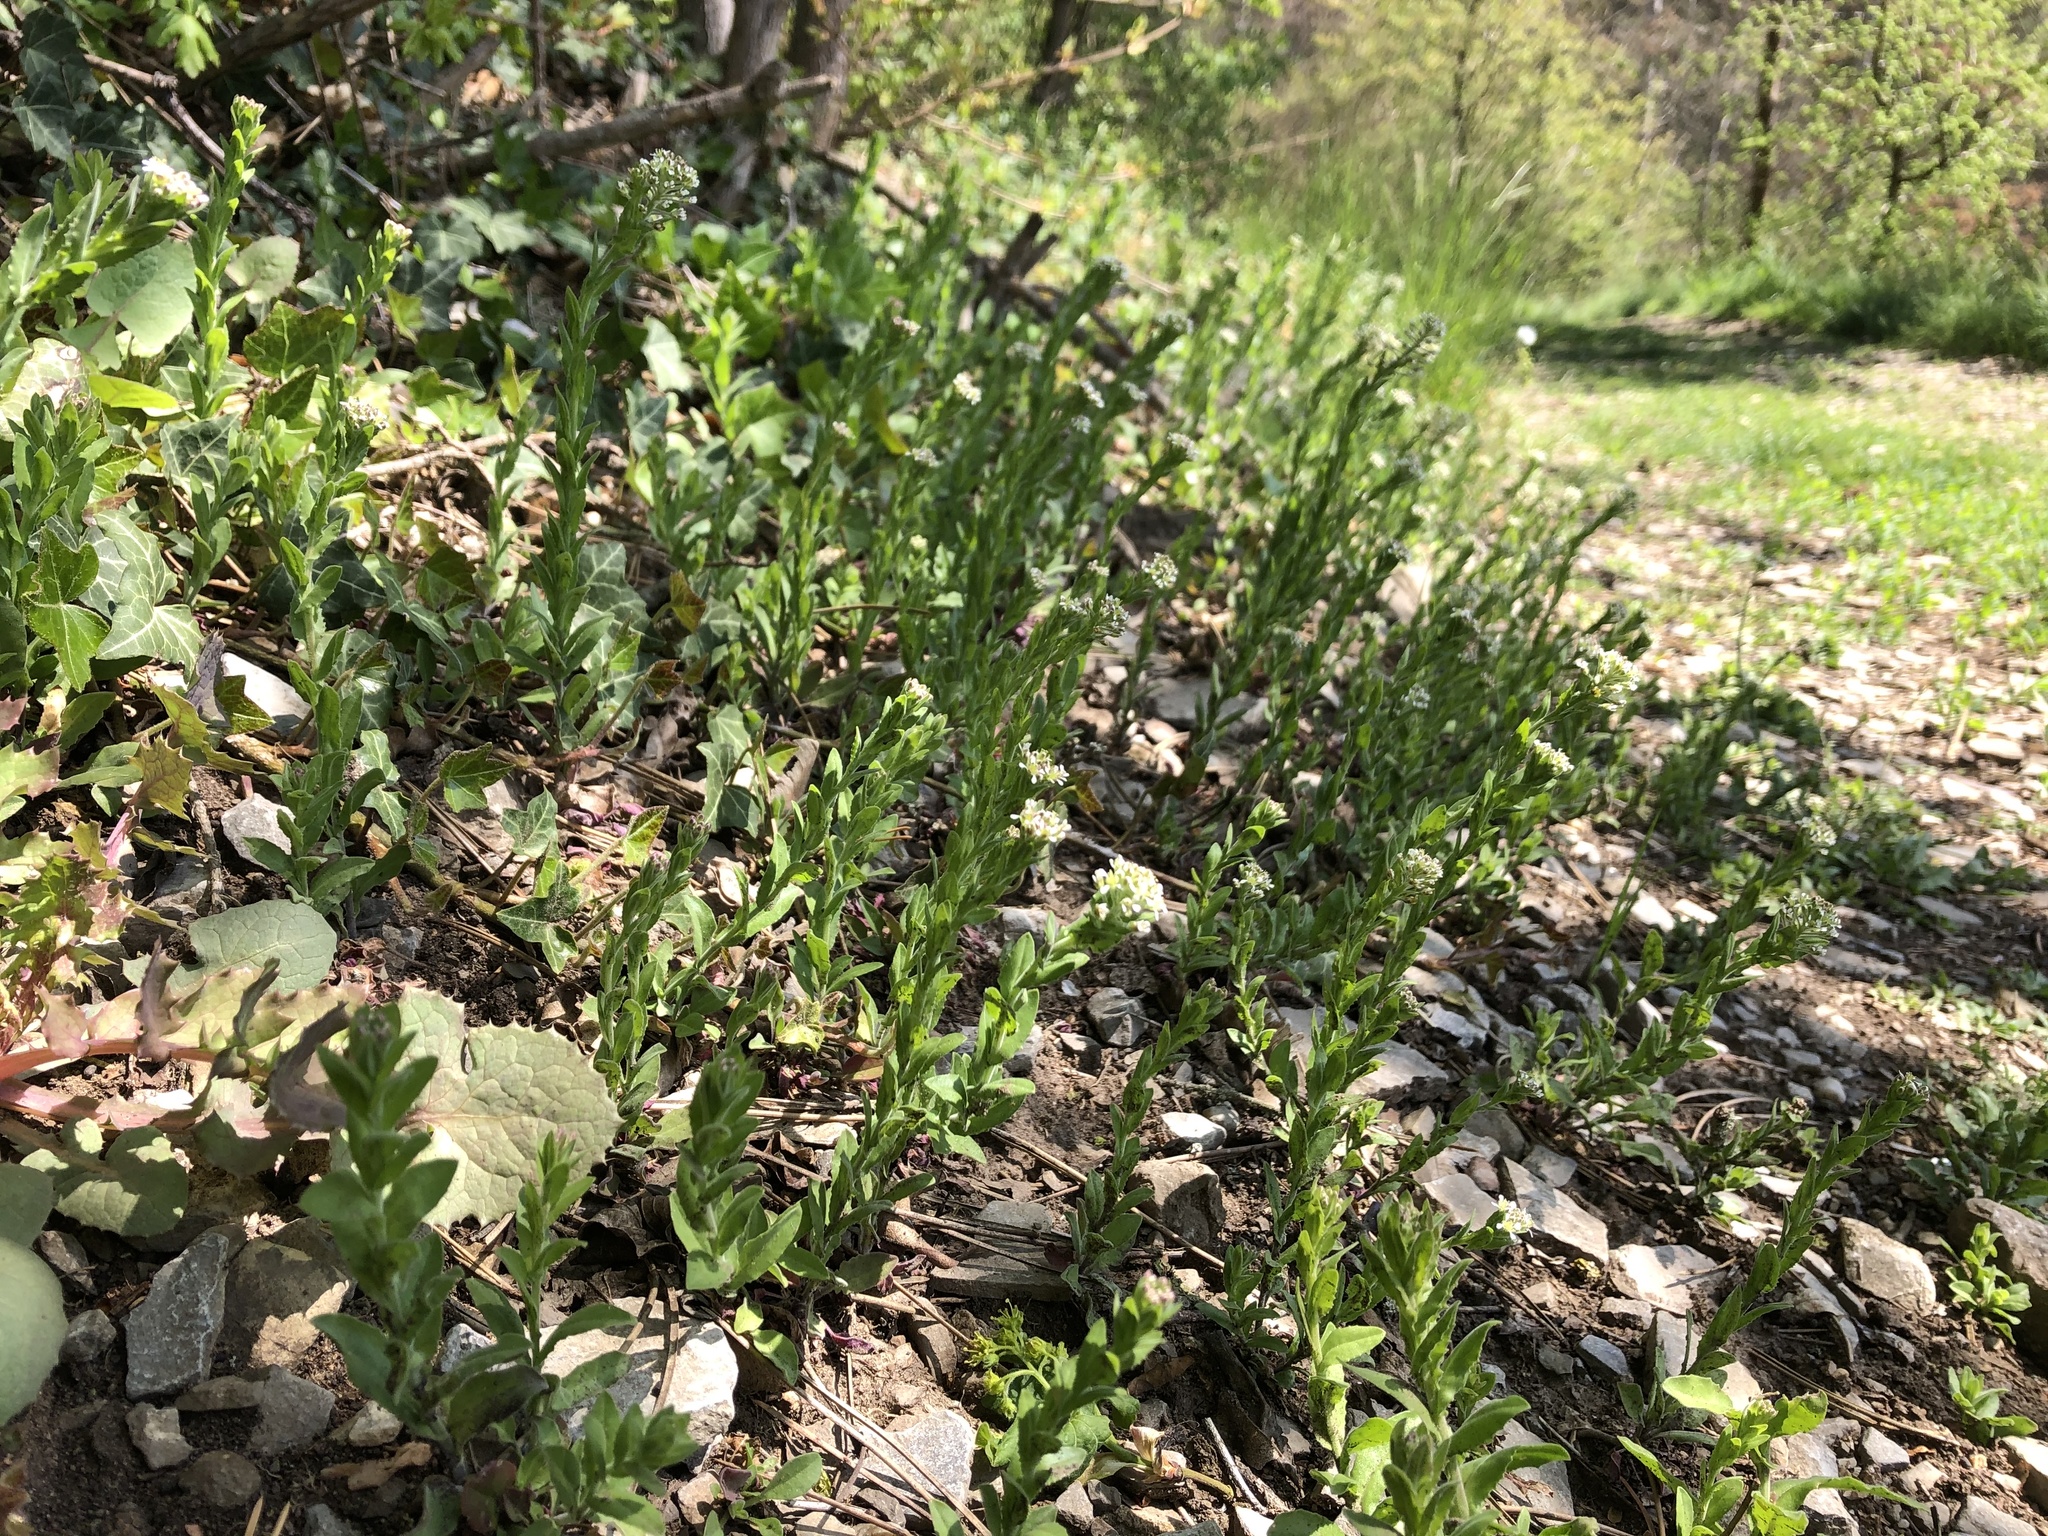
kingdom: Plantae
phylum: Tracheophyta
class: Magnoliopsida
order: Brassicales
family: Brassicaceae
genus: Lepidium
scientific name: Lepidium campestre
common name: Field pepperwort
